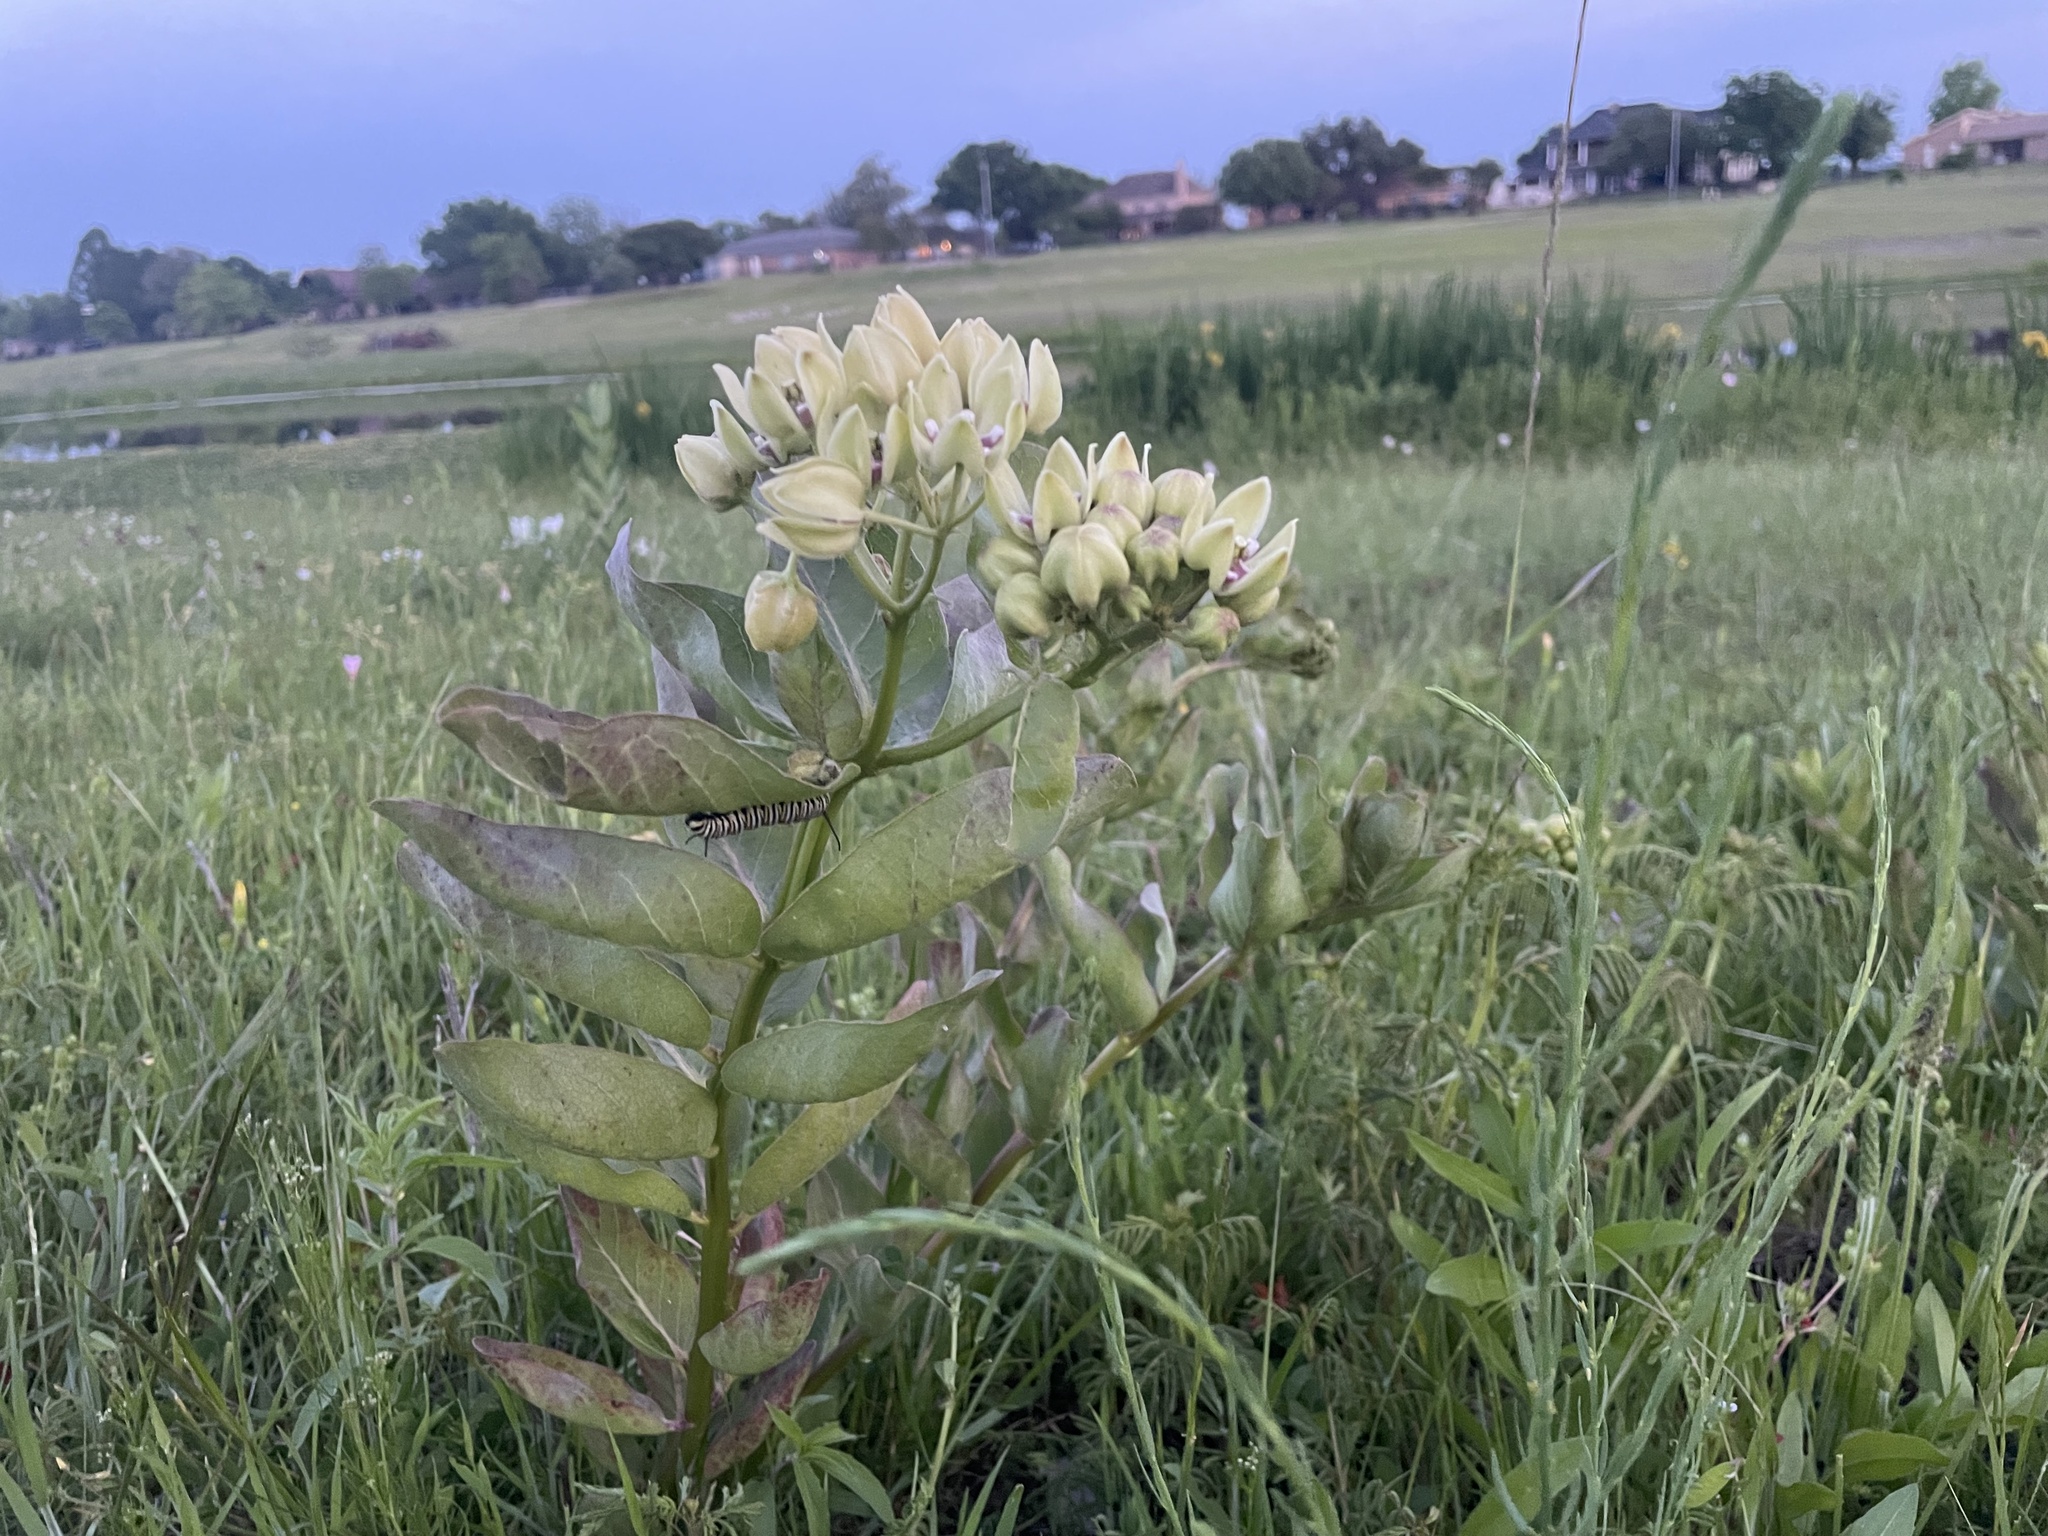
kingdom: Plantae
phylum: Tracheophyta
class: Magnoliopsida
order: Gentianales
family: Apocynaceae
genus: Asclepias
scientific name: Asclepias viridis
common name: Antelope-horns
